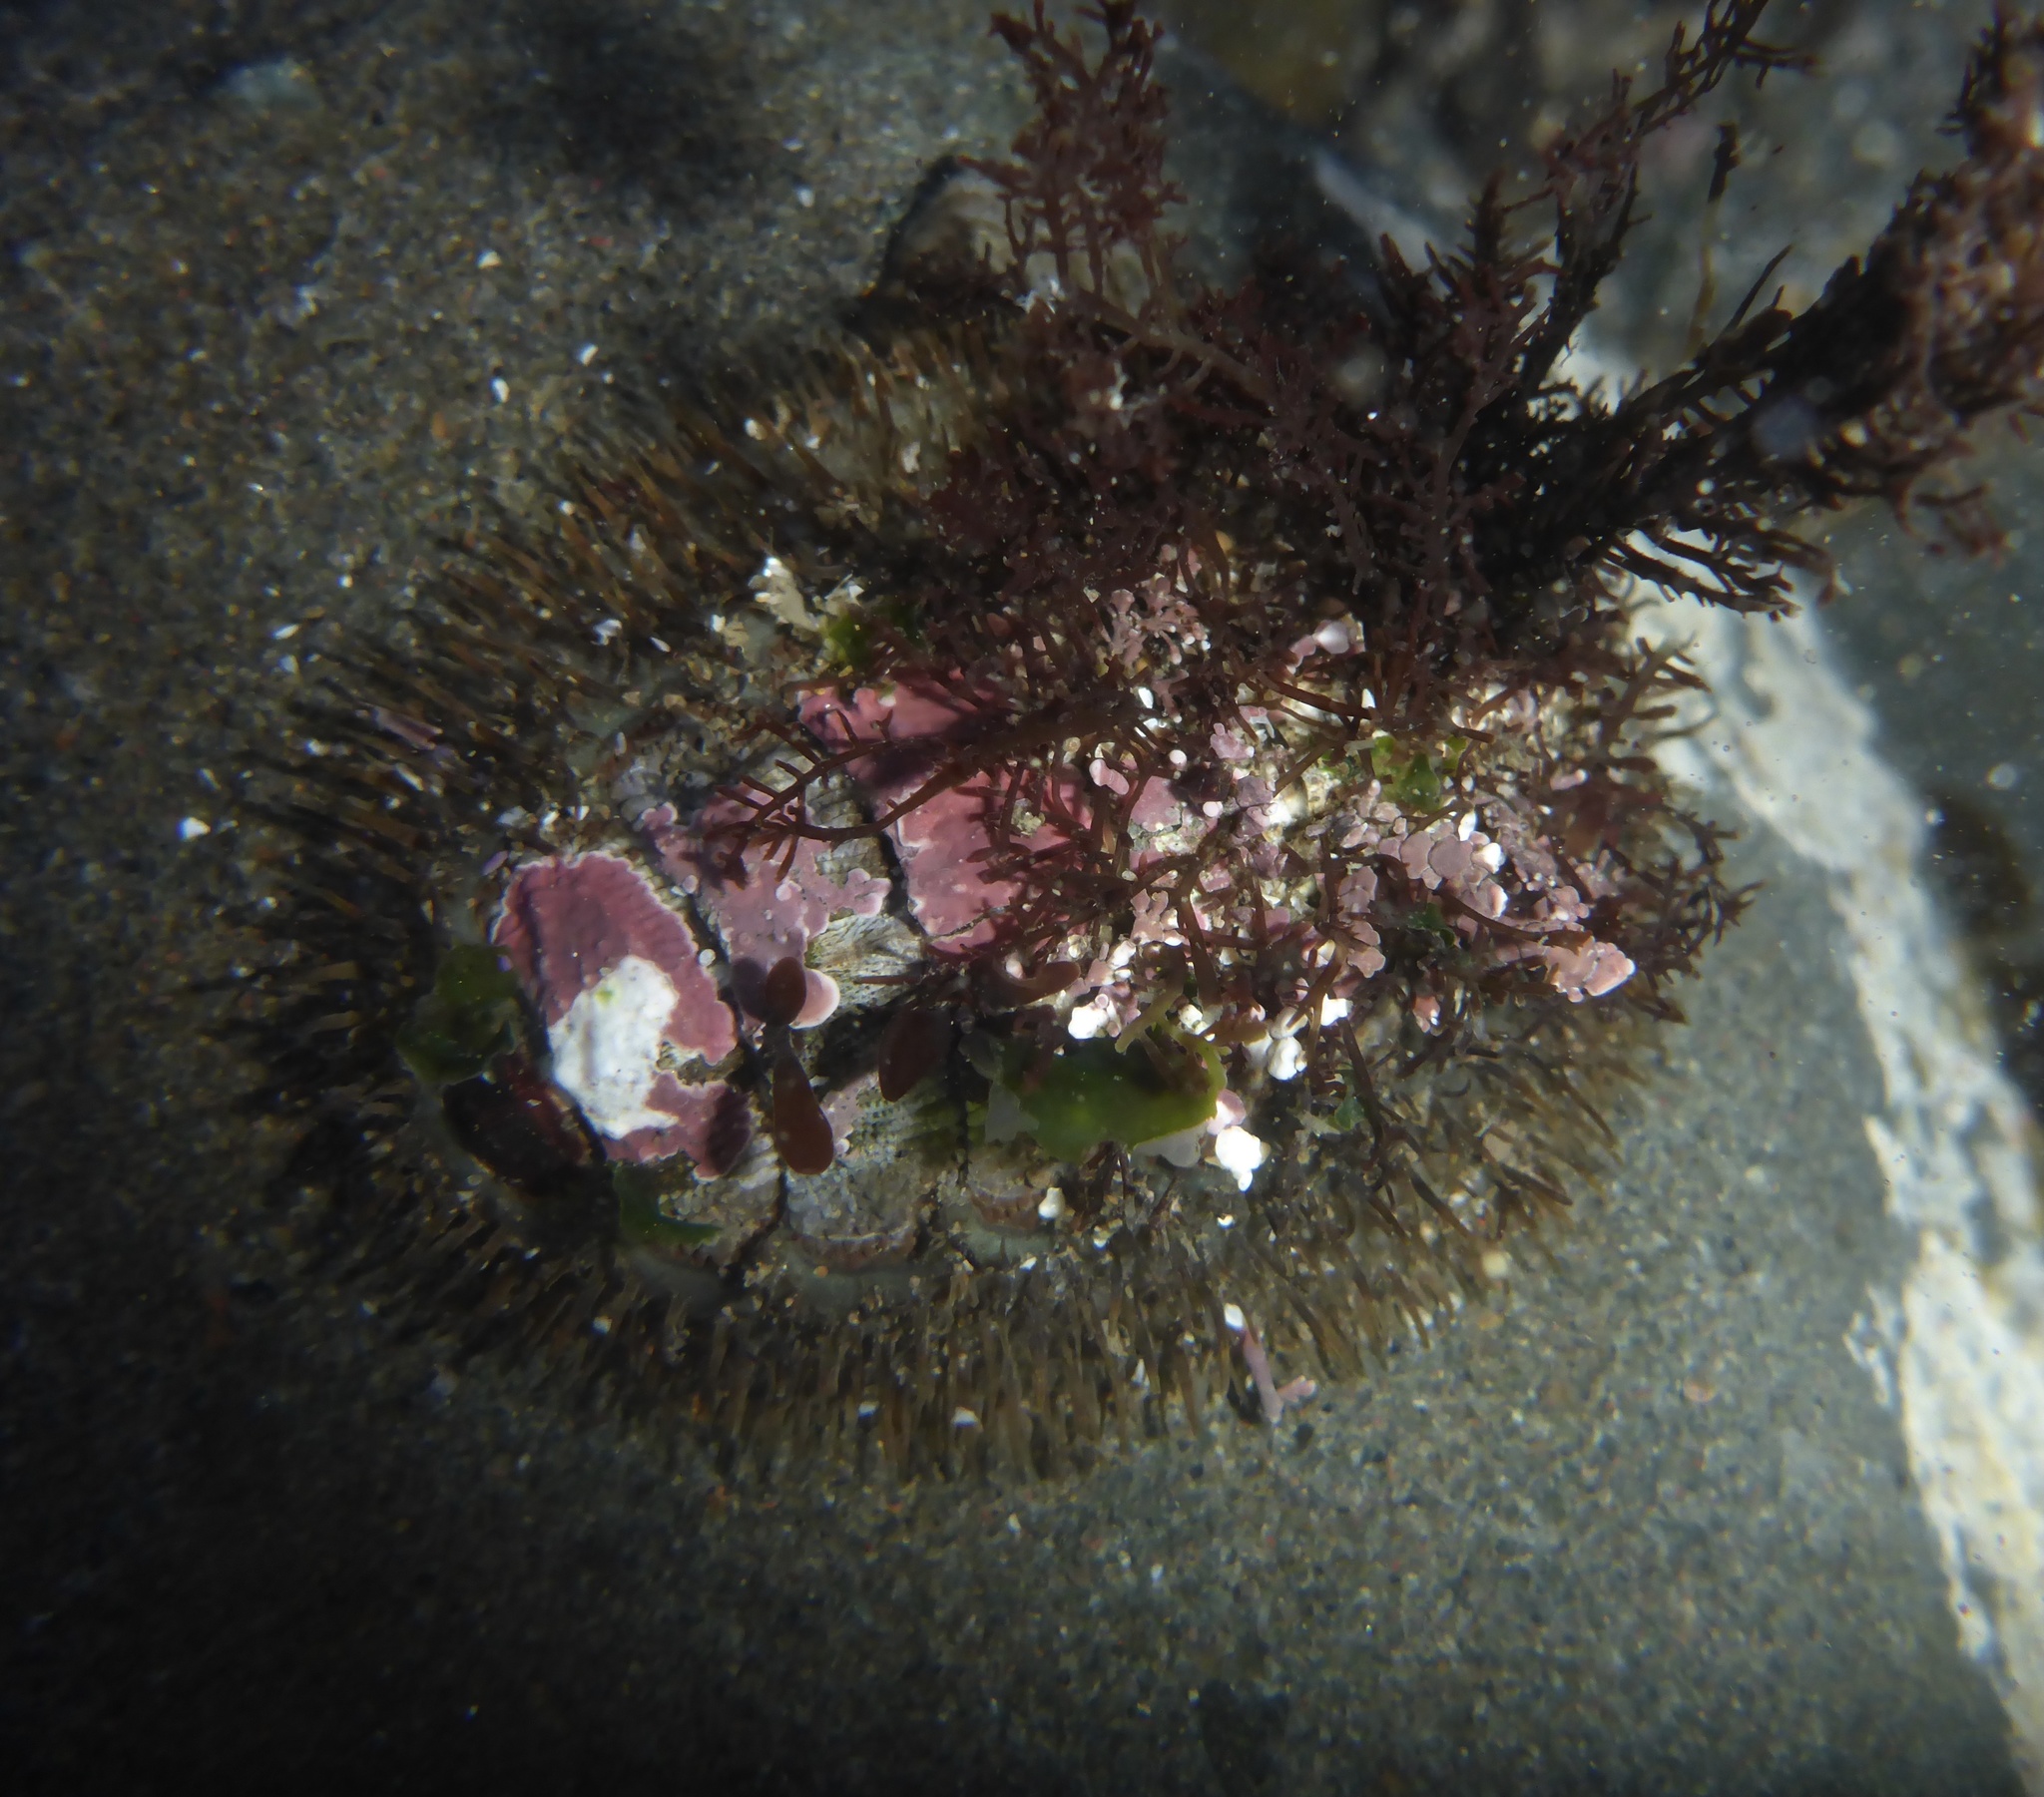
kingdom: Animalia
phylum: Mollusca
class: Polyplacophora
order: Chitonida
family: Mopaliidae
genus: Mopalia
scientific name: Mopalia muscosa
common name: Mossy chiton
